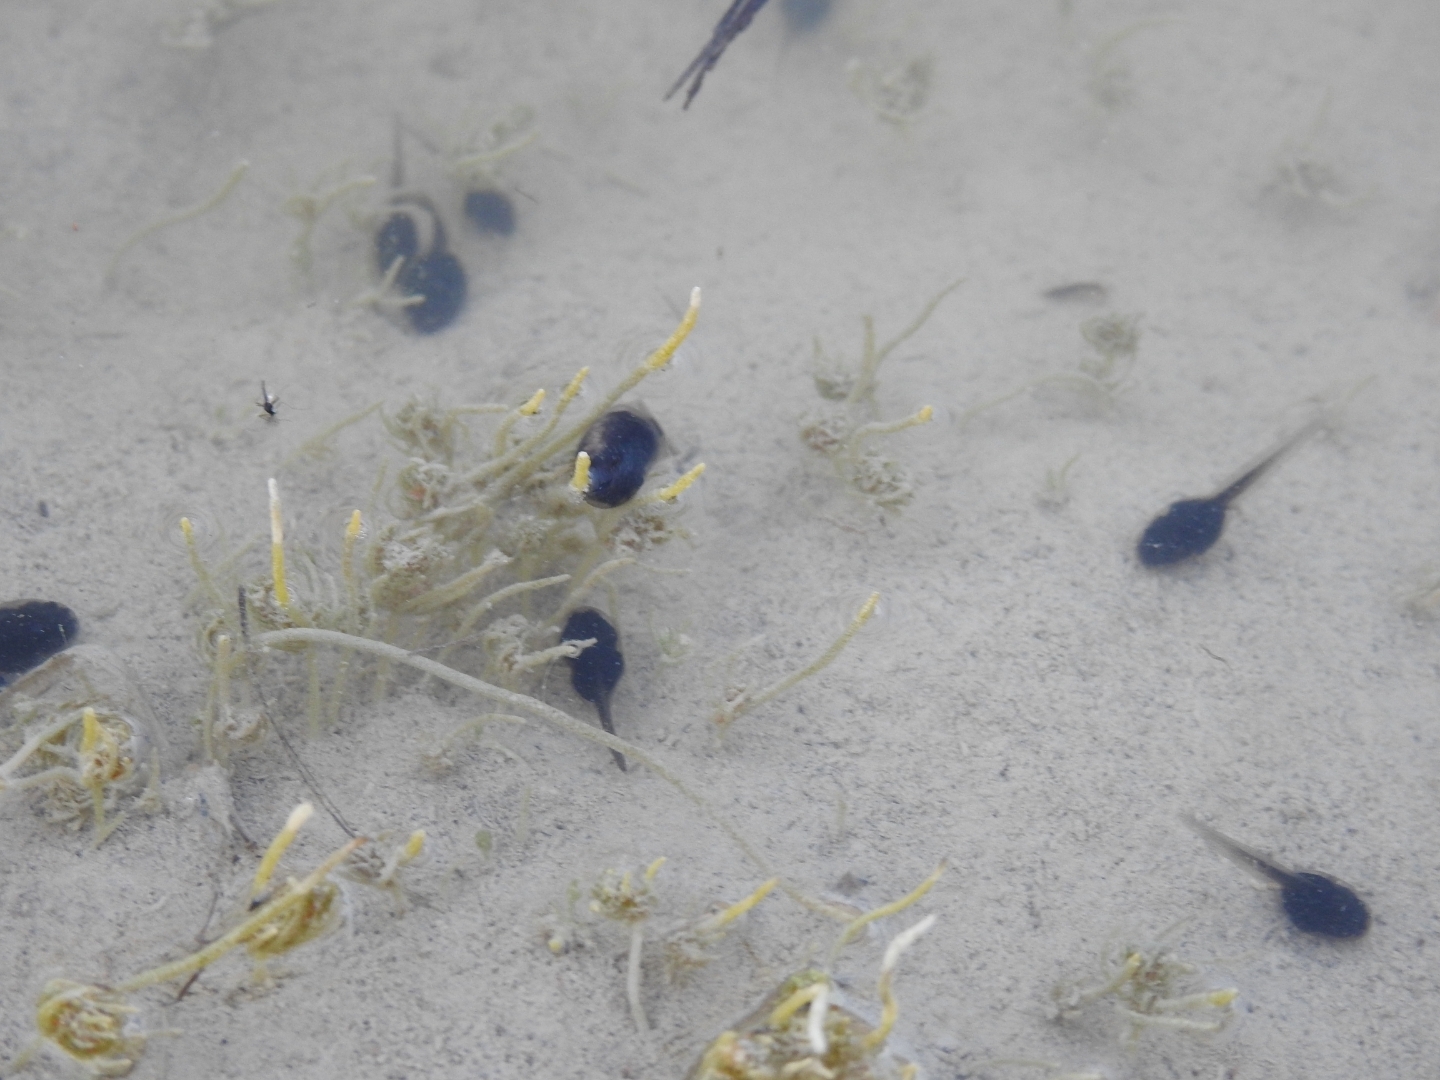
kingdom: Animalia
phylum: Chordata
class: Amphibia
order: Anura
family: Bufonidae
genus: Epidalea
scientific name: Epidalea calamita
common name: Natterjack toad
